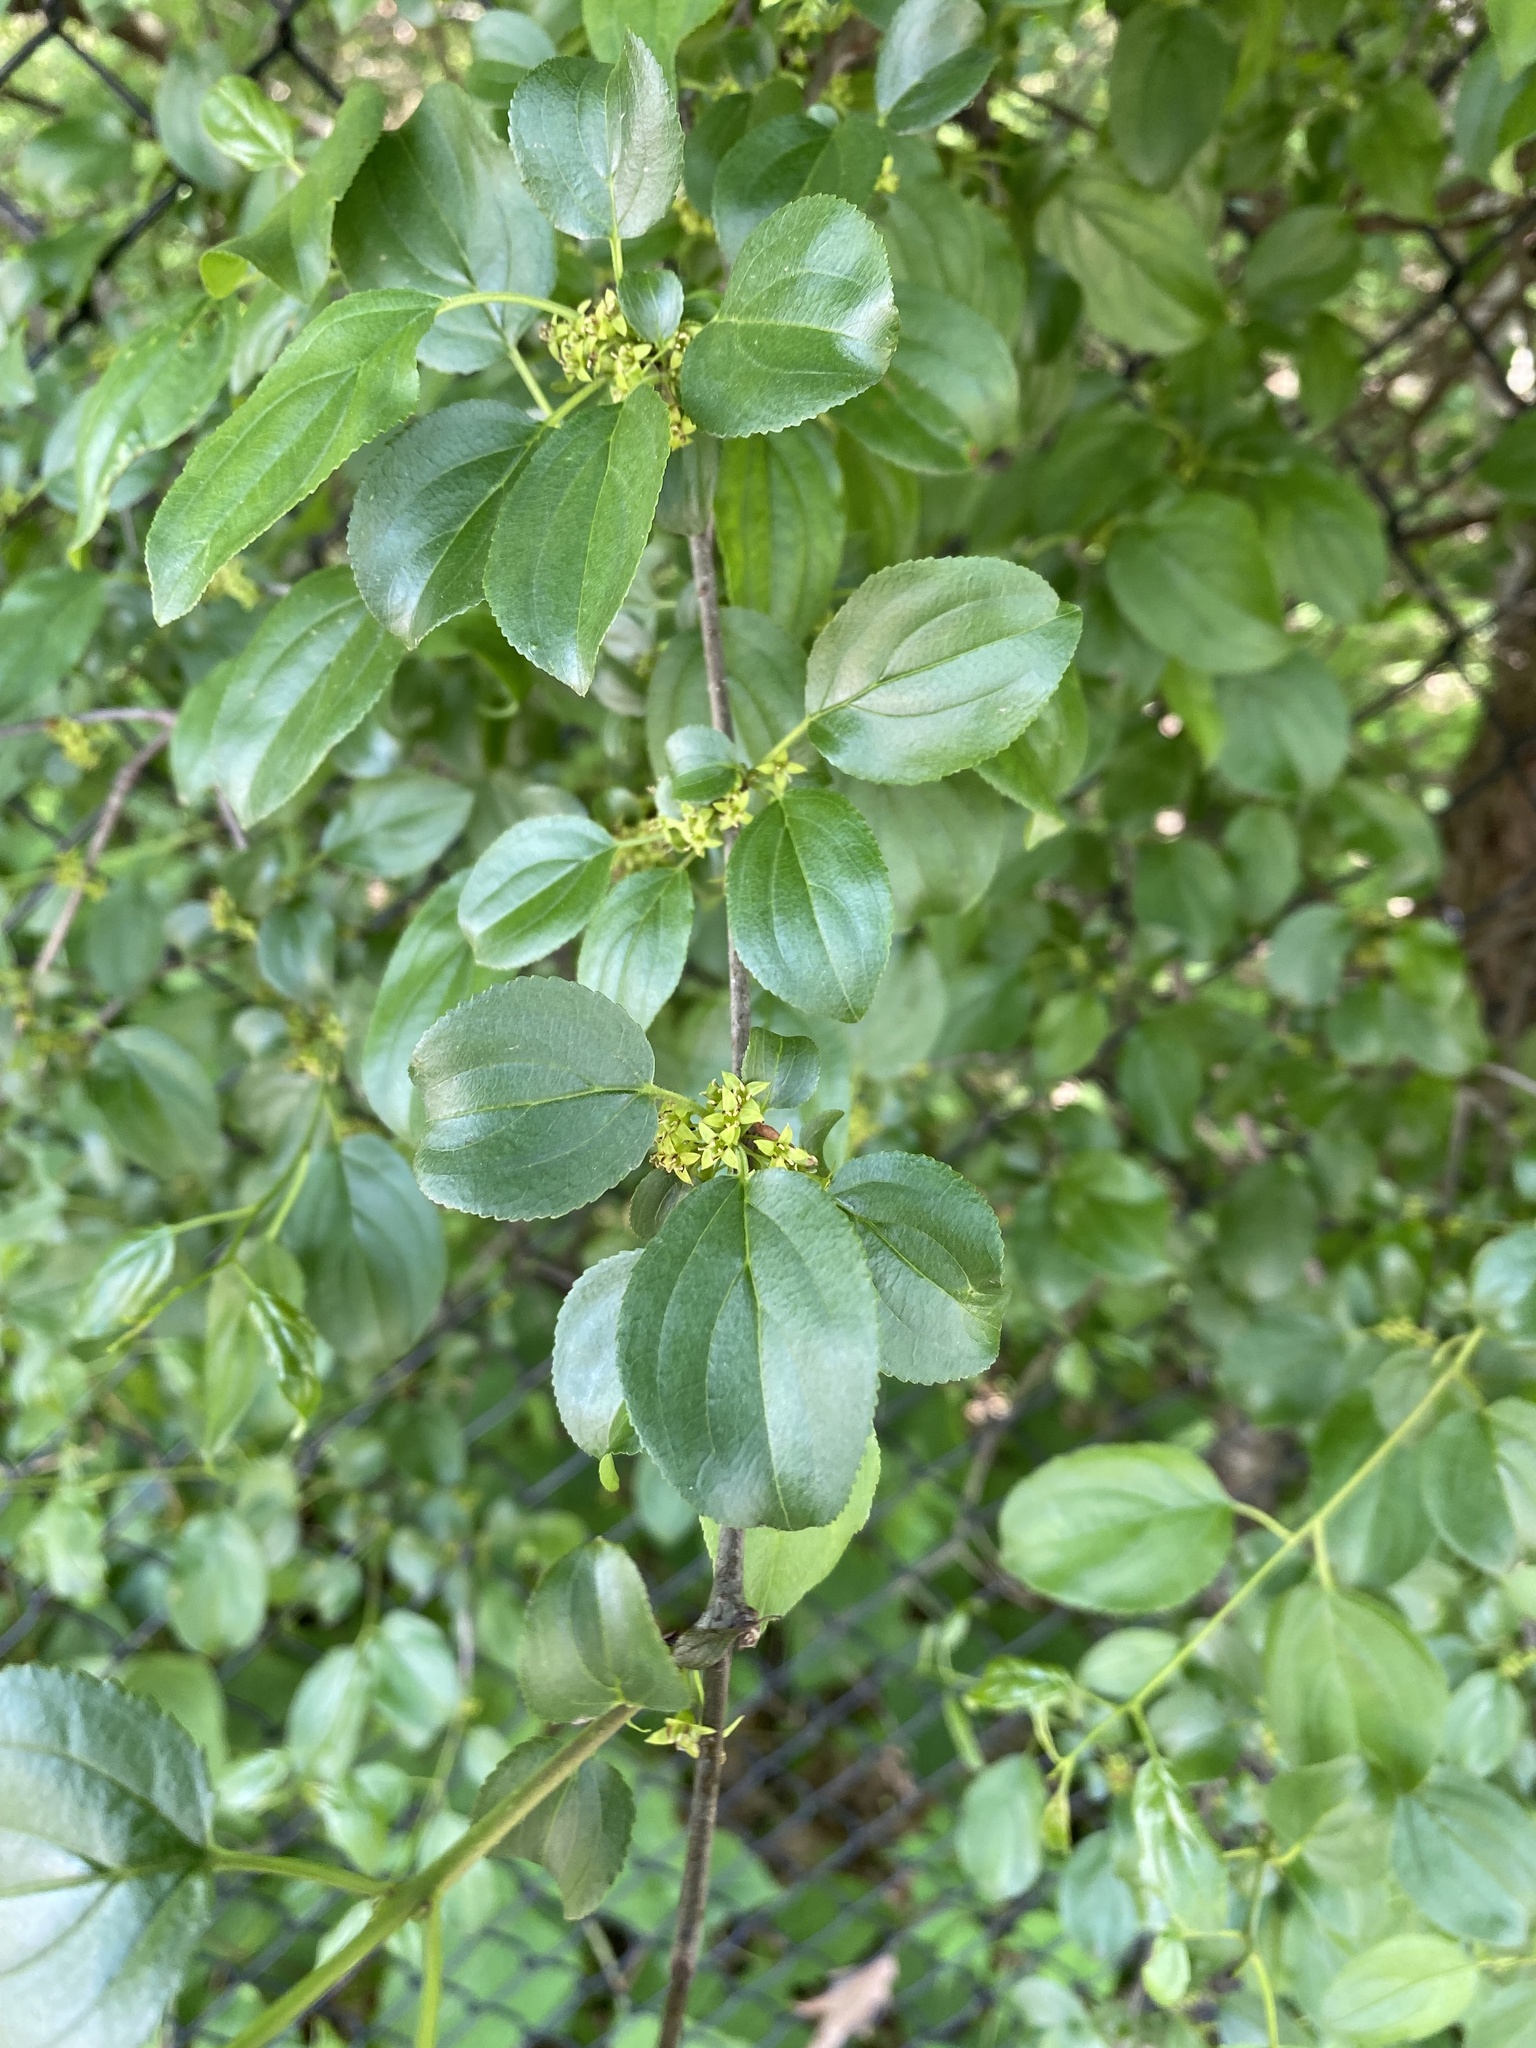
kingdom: Plantae
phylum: Tracheophyta
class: Magnoliopsida
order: Rosales
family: Rhamnaceae
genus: Rhamnus
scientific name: Rhamnus cathartica
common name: Common buckthorn
